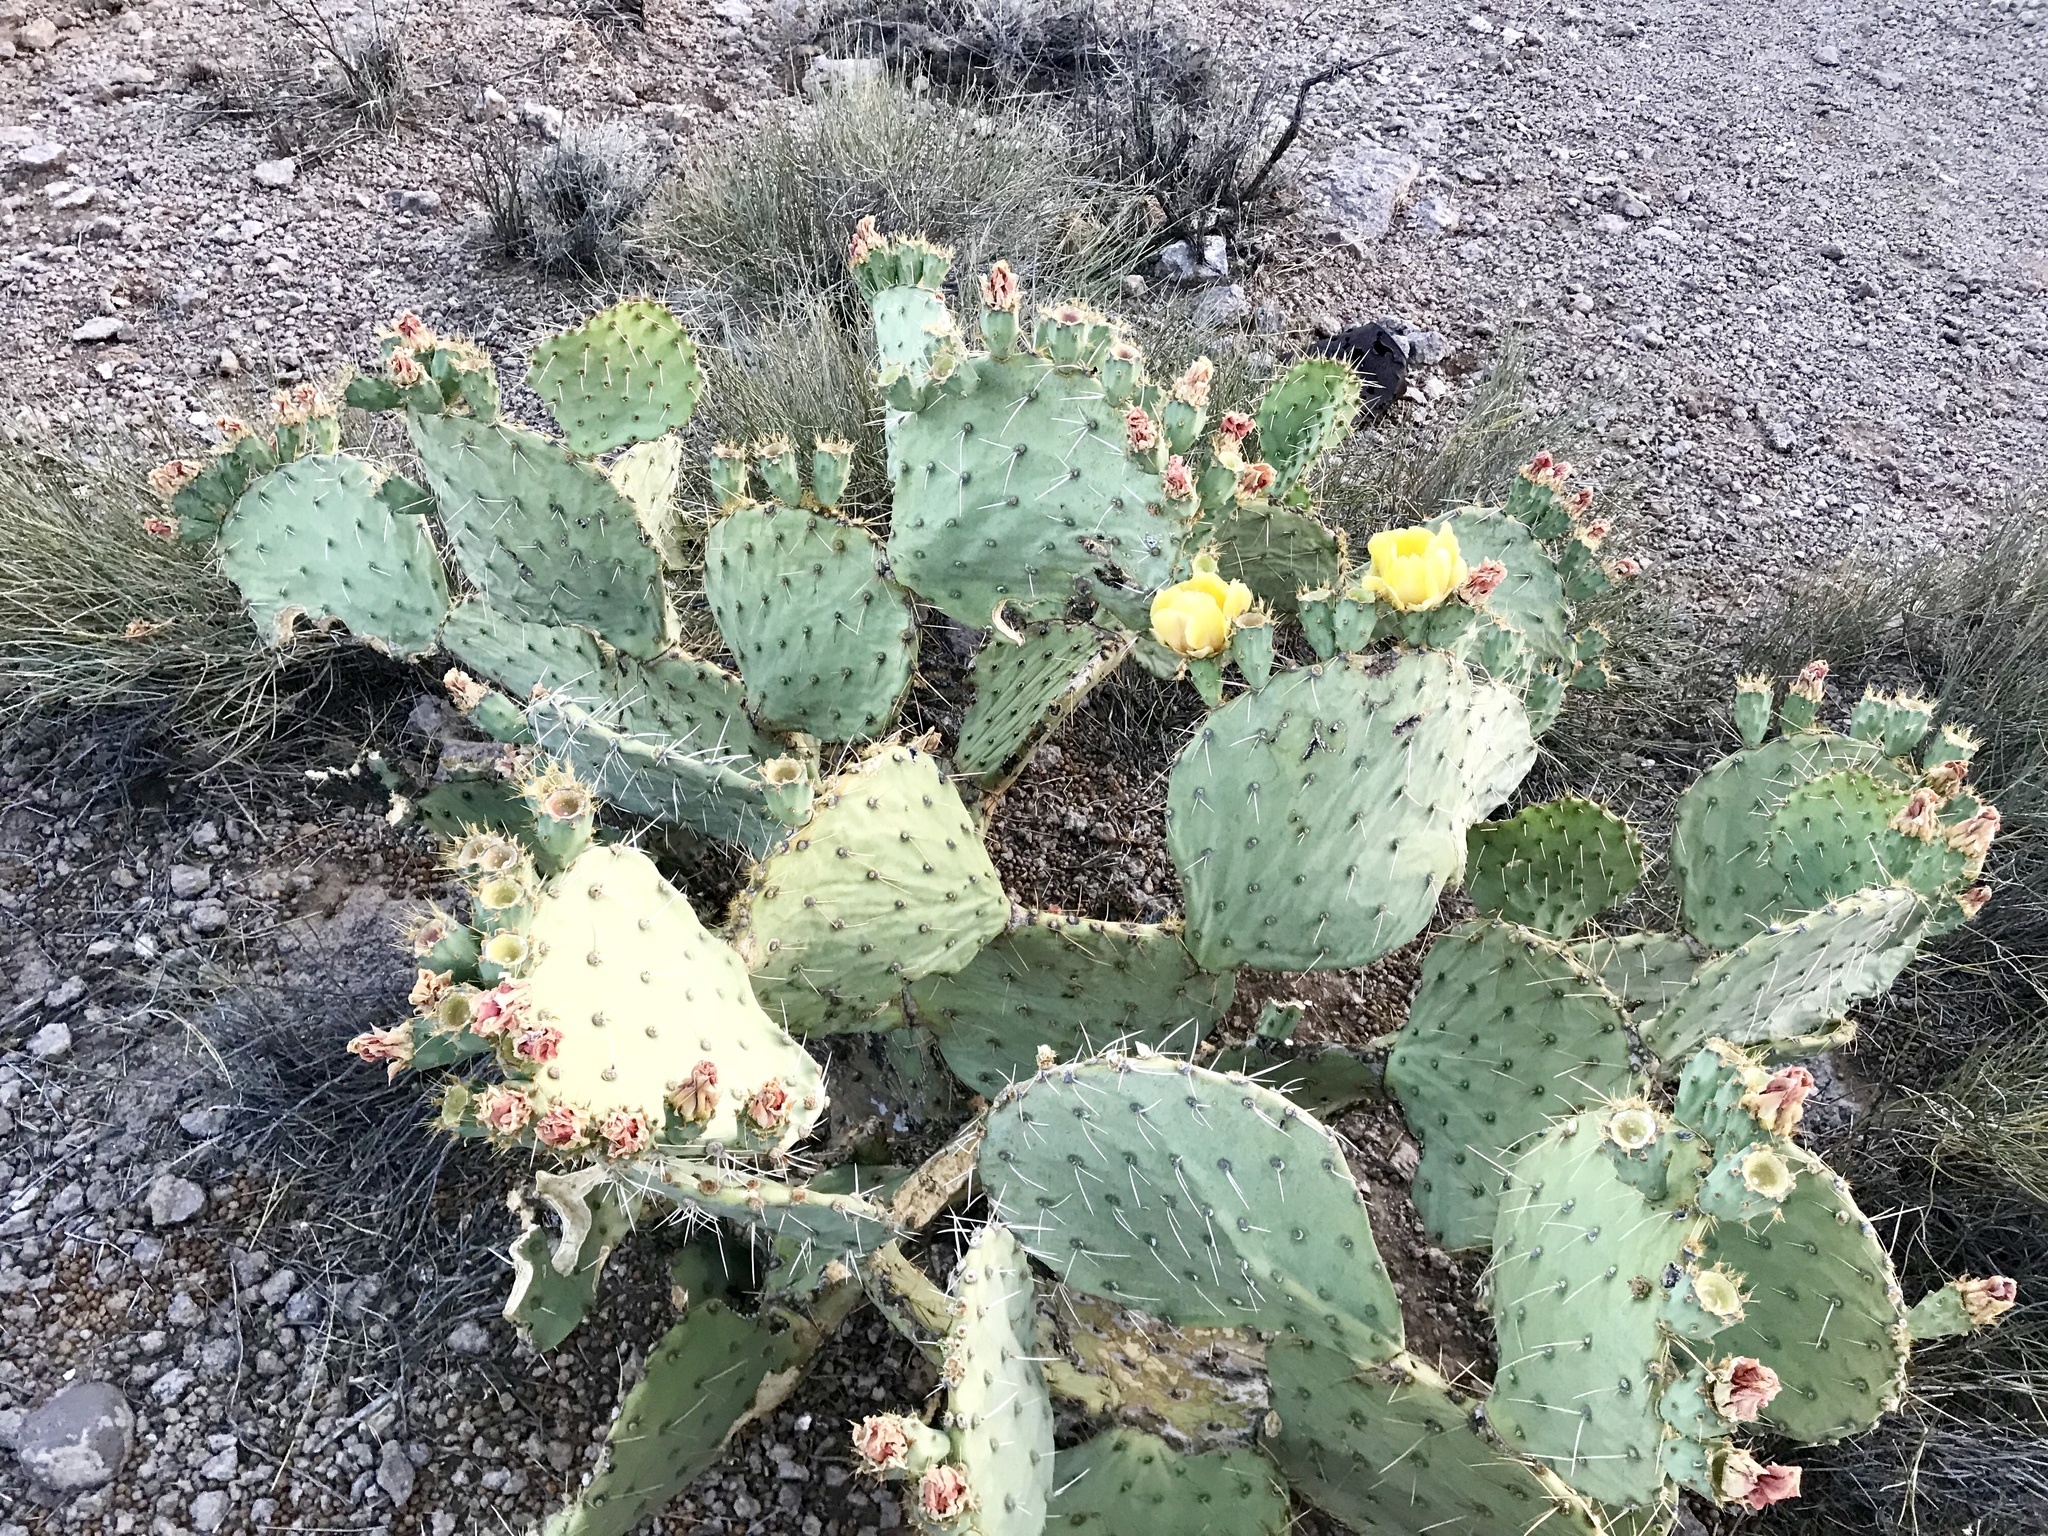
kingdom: Plantae
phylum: Tracheophyta
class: Magnoliopsida
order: Caryophyllales
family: Cactaceae
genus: Opuntia
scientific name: Opuntia engelmannii
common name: Cactus-apple
